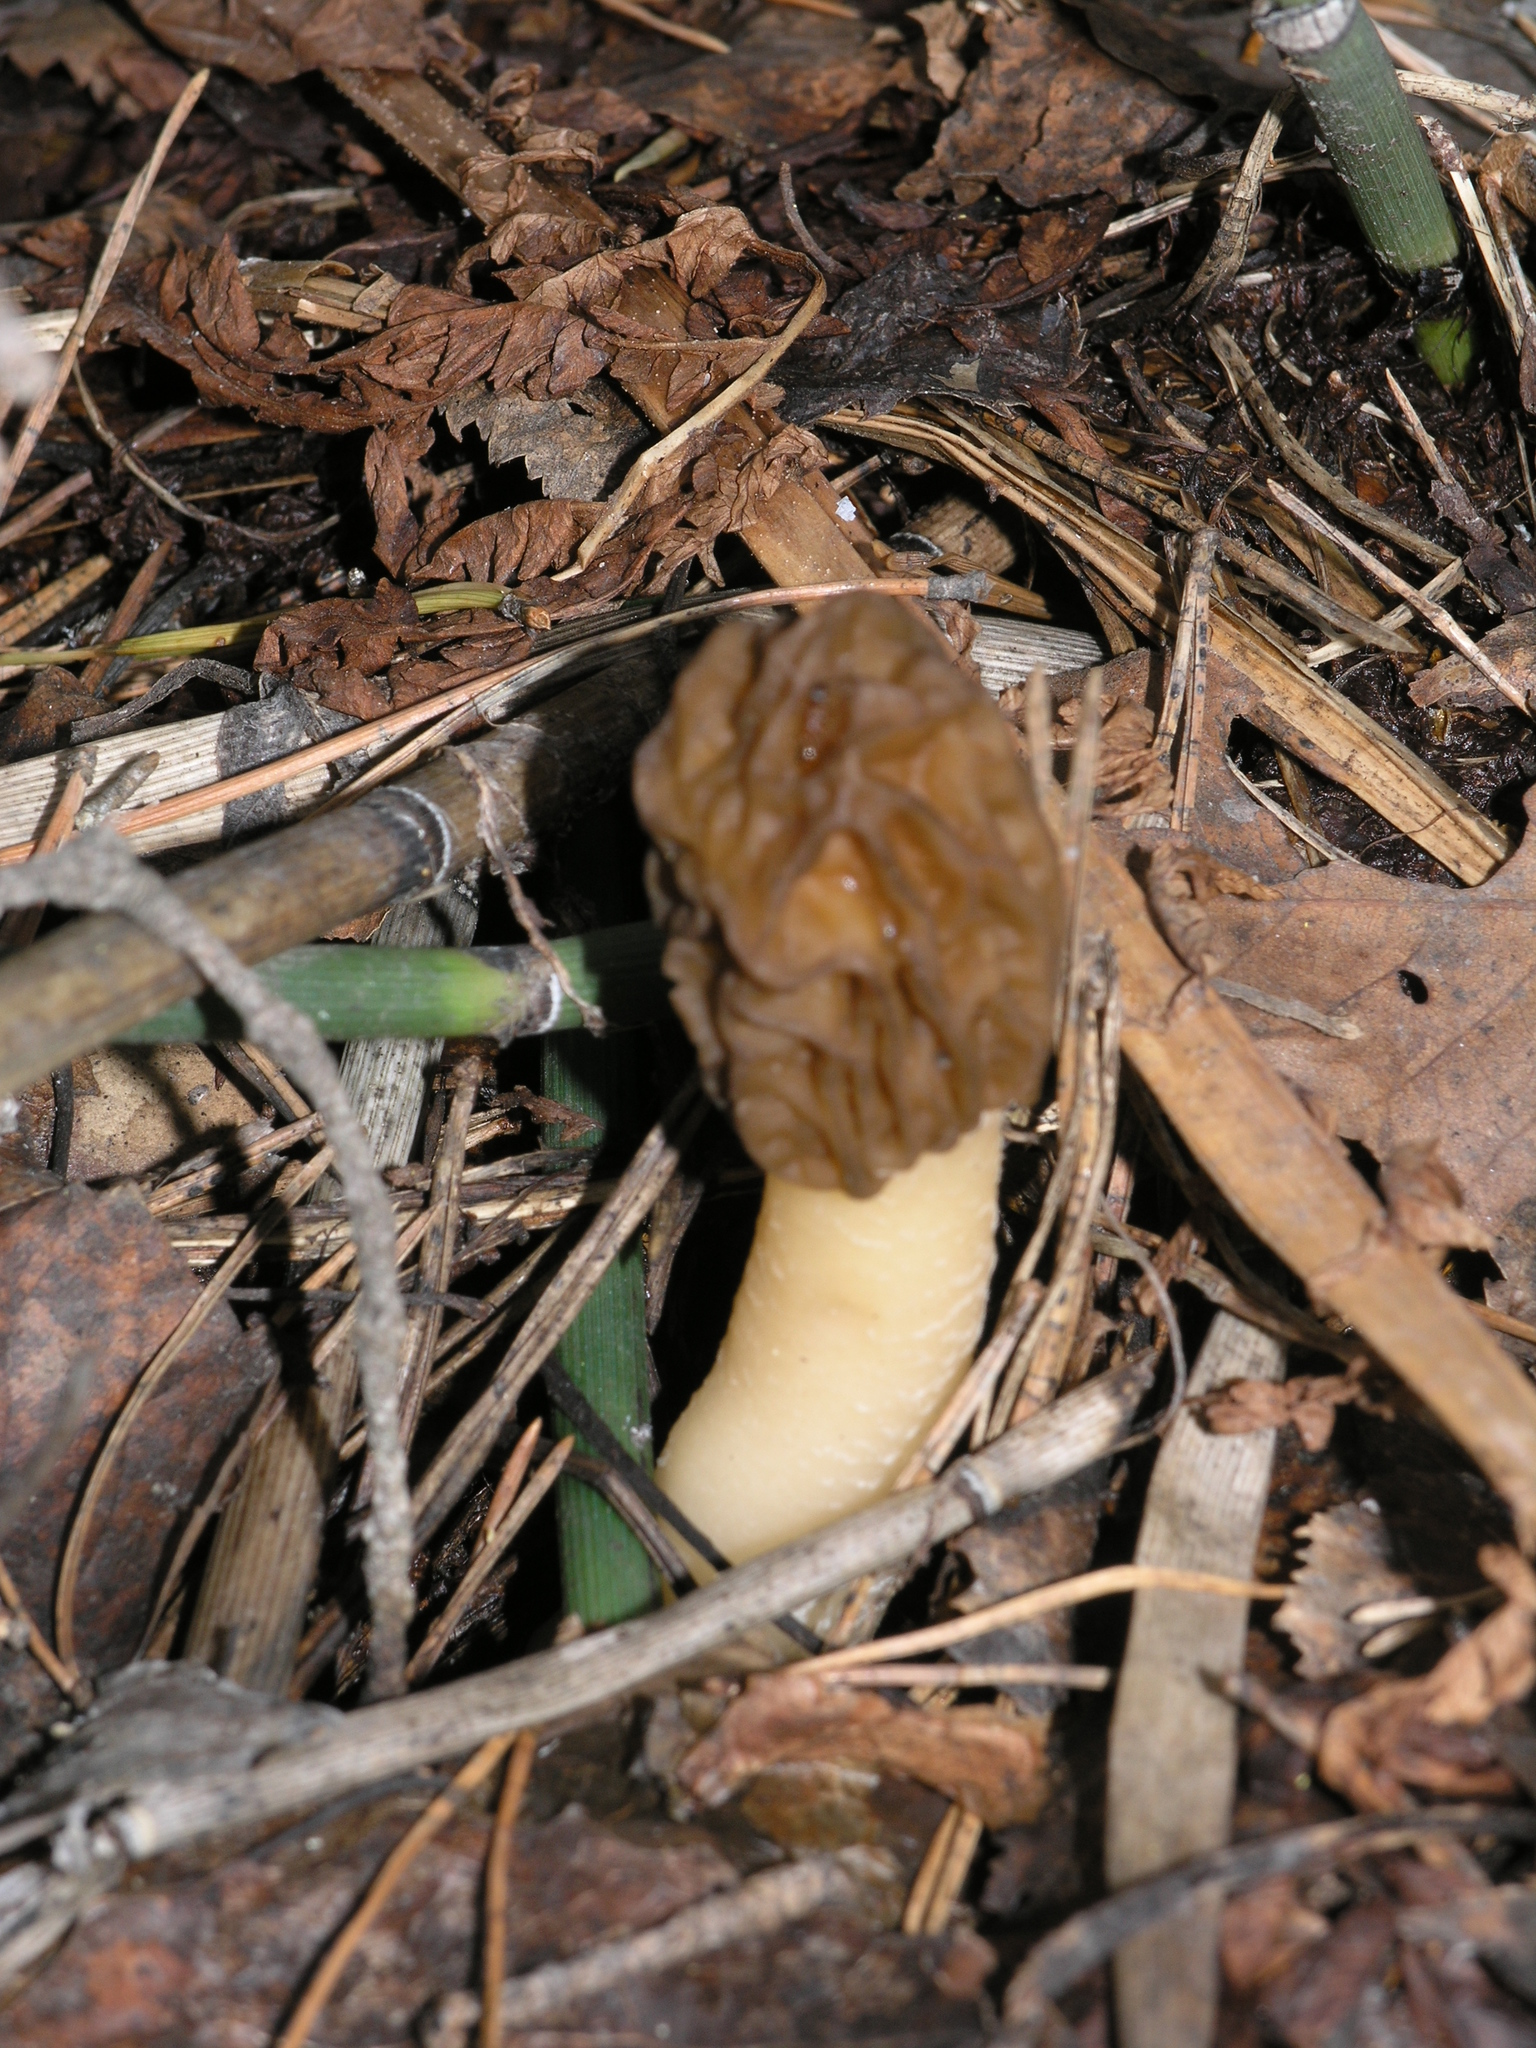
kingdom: Fungi
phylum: Ascomycota
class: Pezizomycetes
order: Pezizales
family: Morchellaceae
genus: Verpa
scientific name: Verpa bohemica
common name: Wrinkled thimble morel
